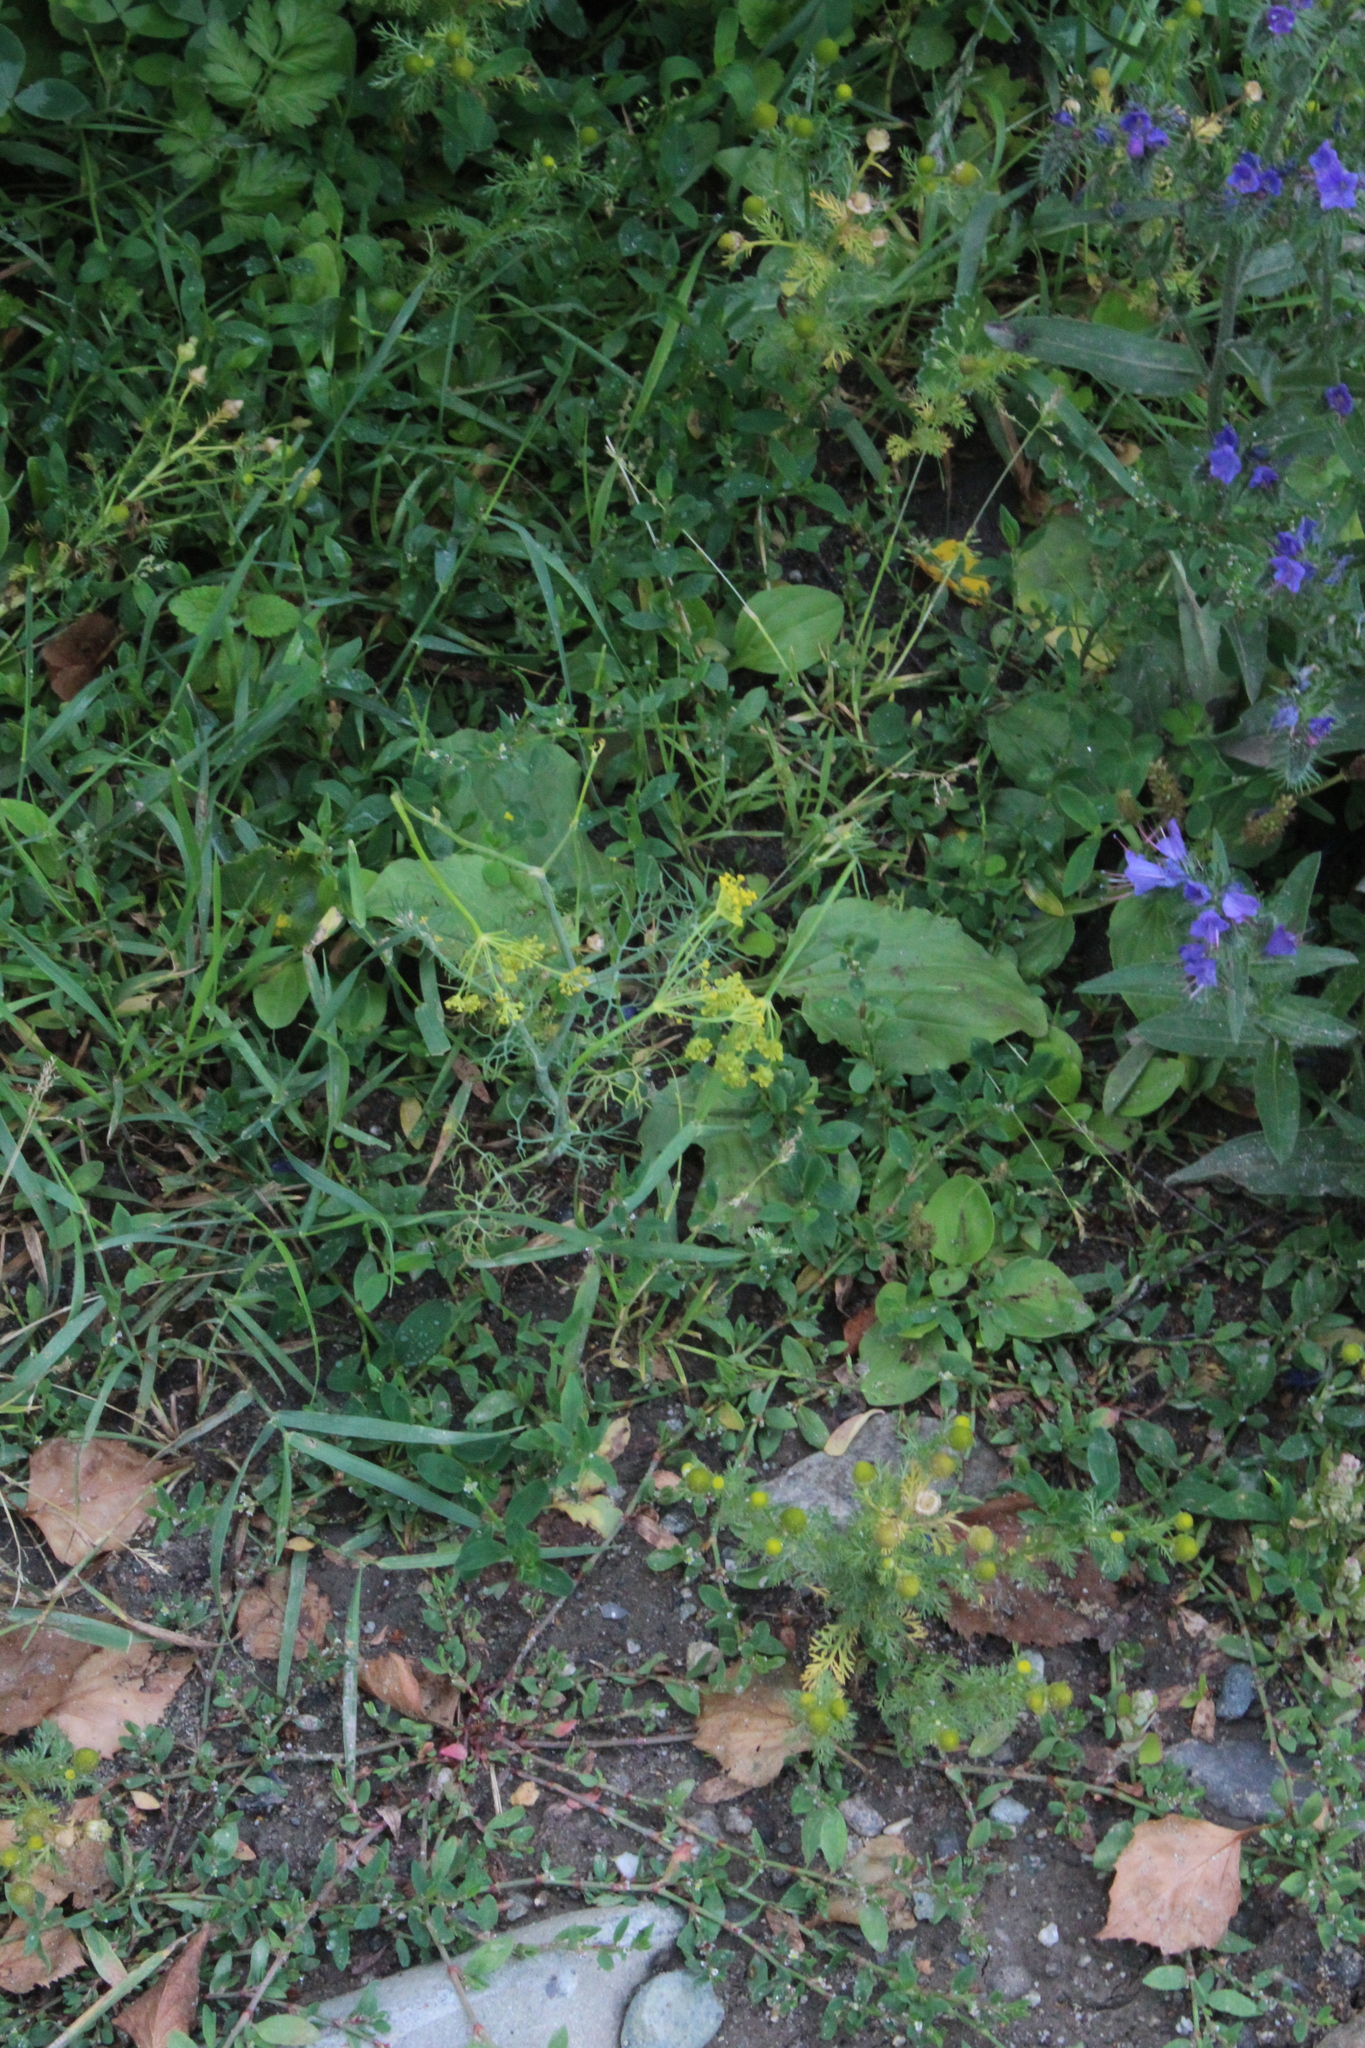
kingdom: Plantae
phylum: Tracheophyta
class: Magnoliopsida
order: Apiales
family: Apiaceae
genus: Anethum
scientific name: Anethum graveolens
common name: Dill
